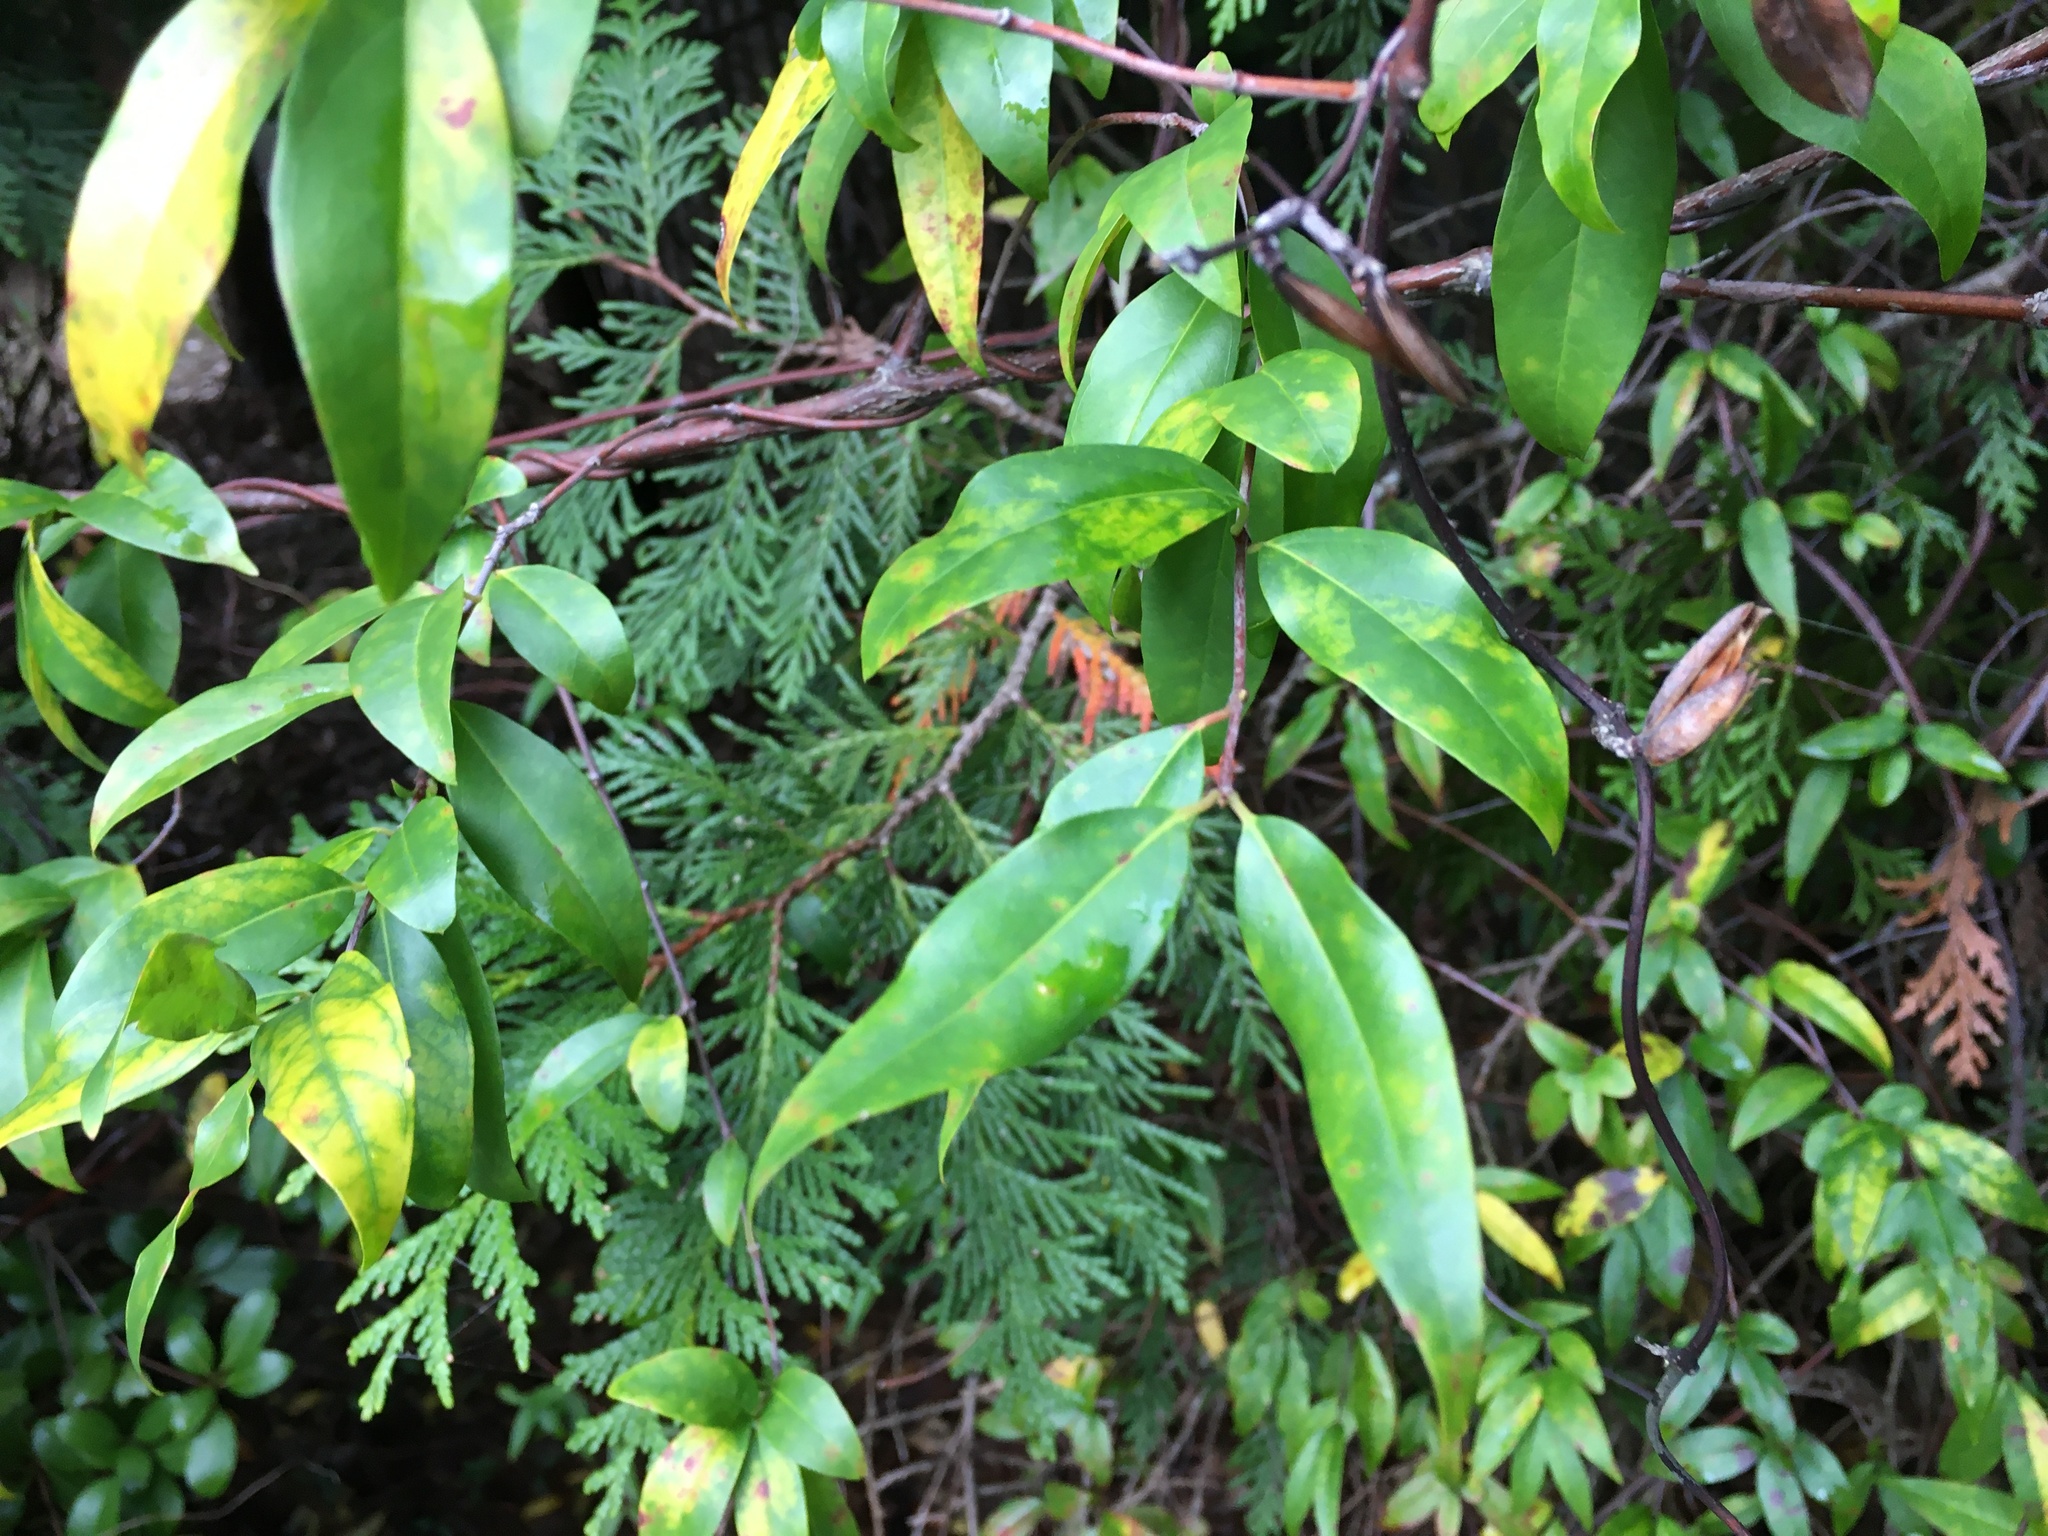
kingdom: Plantae
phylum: Tracheophyta
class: Magnoliopsida
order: Gentianales
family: Gelsemiaceae
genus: Gelsemium
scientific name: Gelsemium sempervirens
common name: Carolina-jasmine
